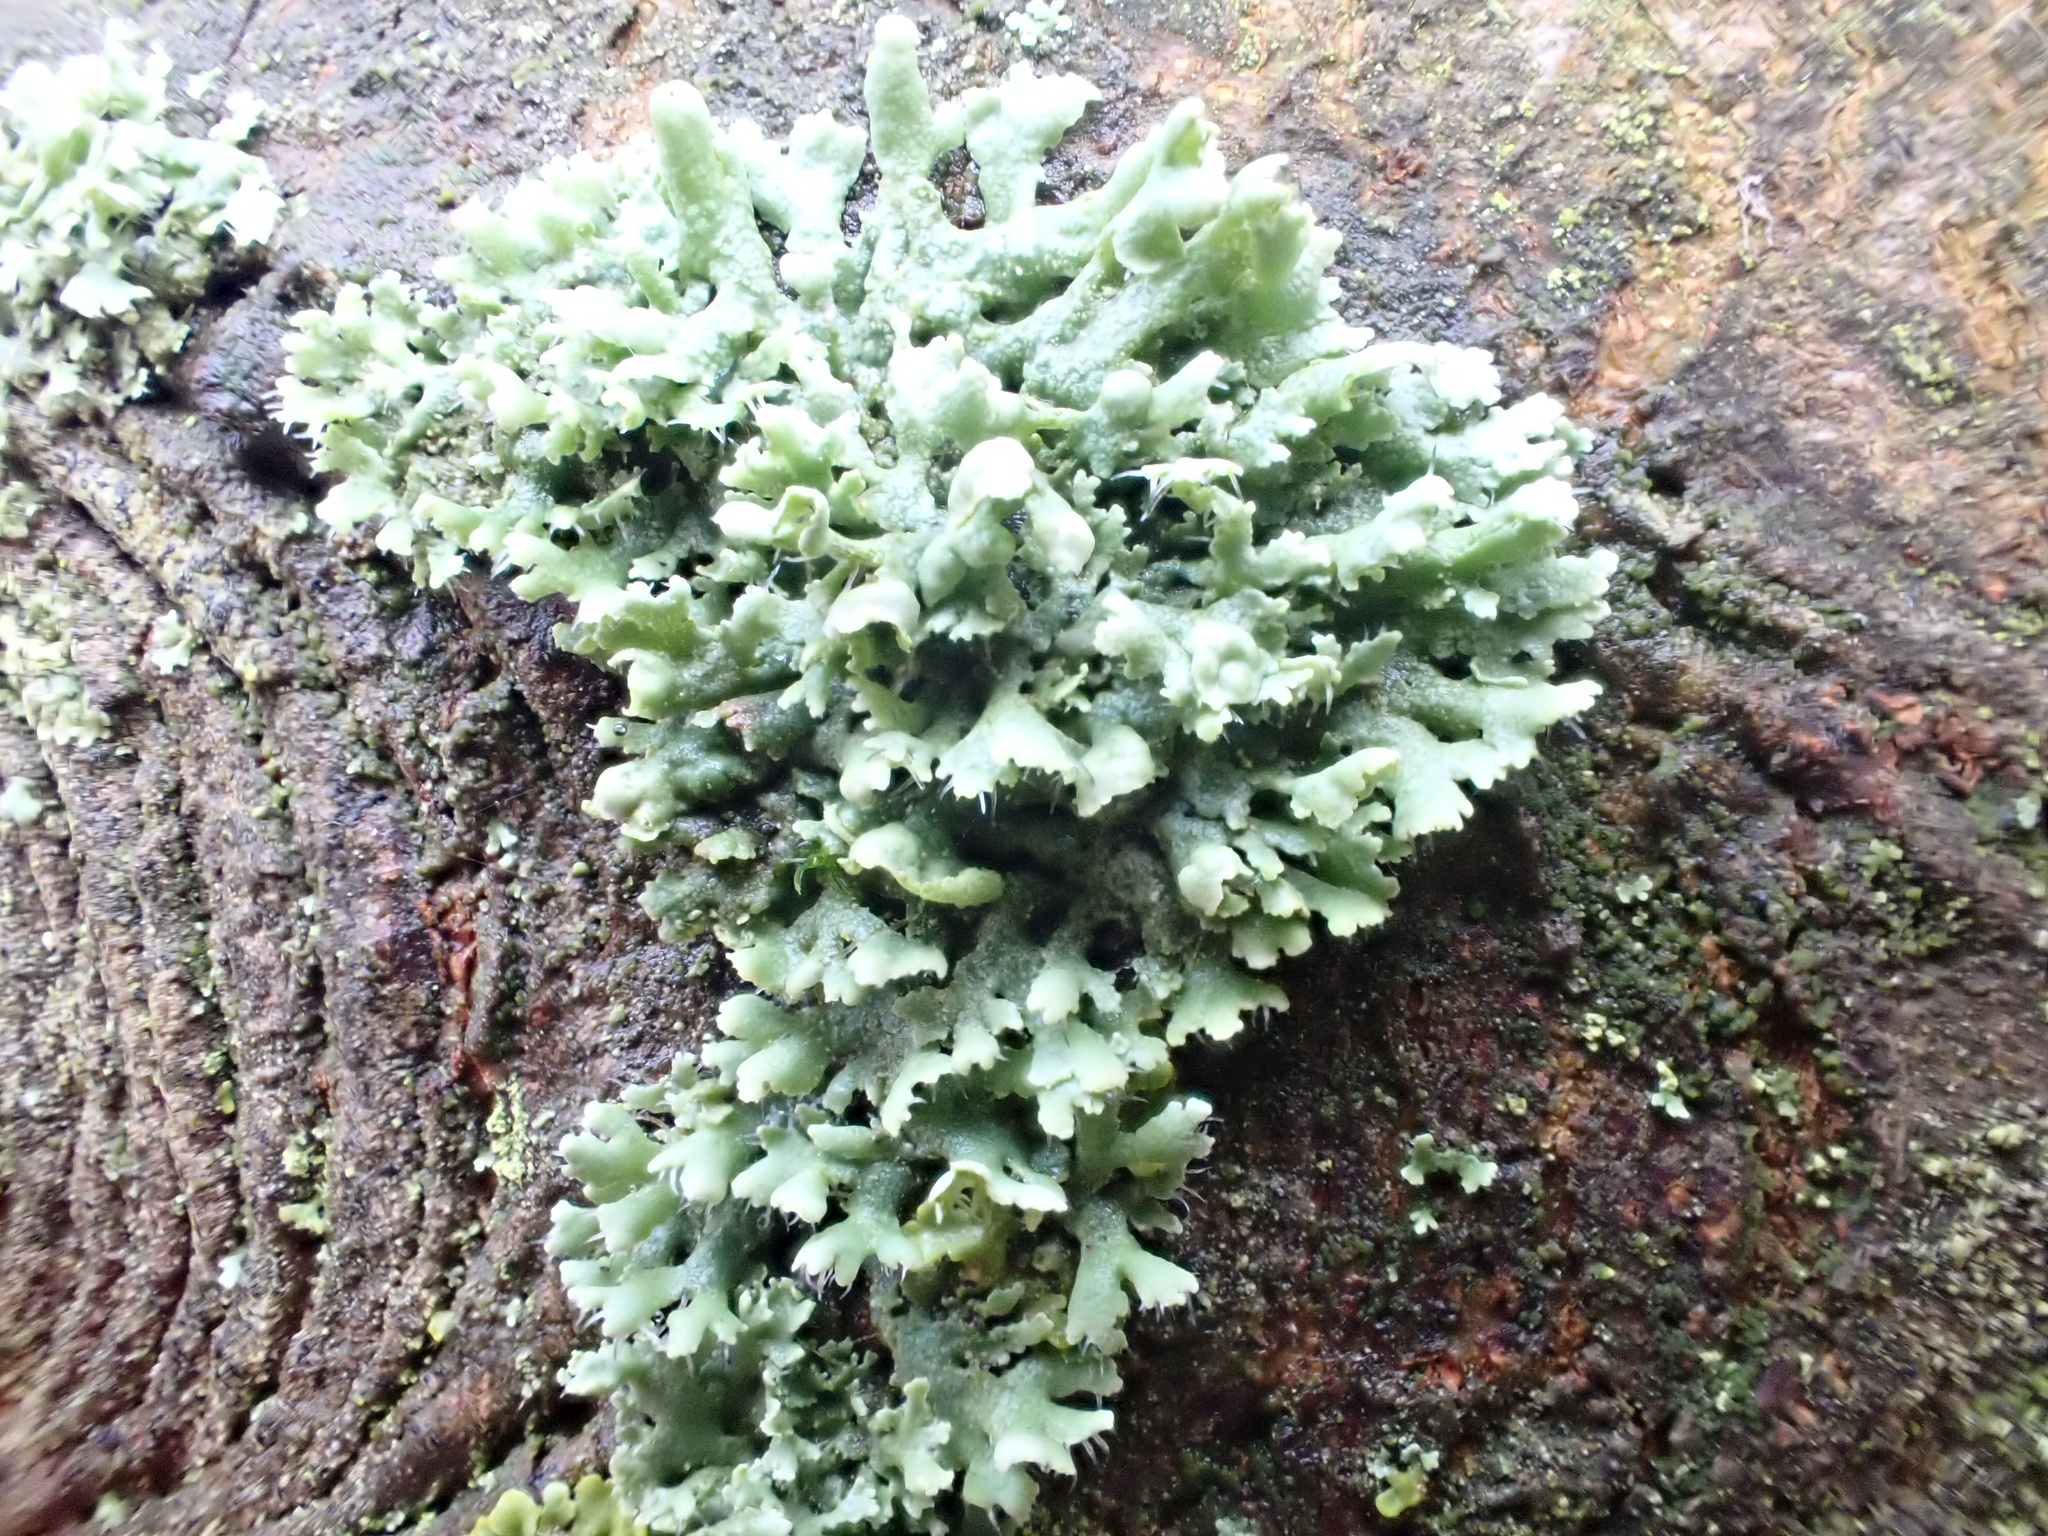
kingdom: Fungi
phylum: Ascomycota
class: Lecanoromycetes
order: Caliciales
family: Physciaceae
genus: Physcia
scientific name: Physcia adscendens
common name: Hooded rosette lichen
